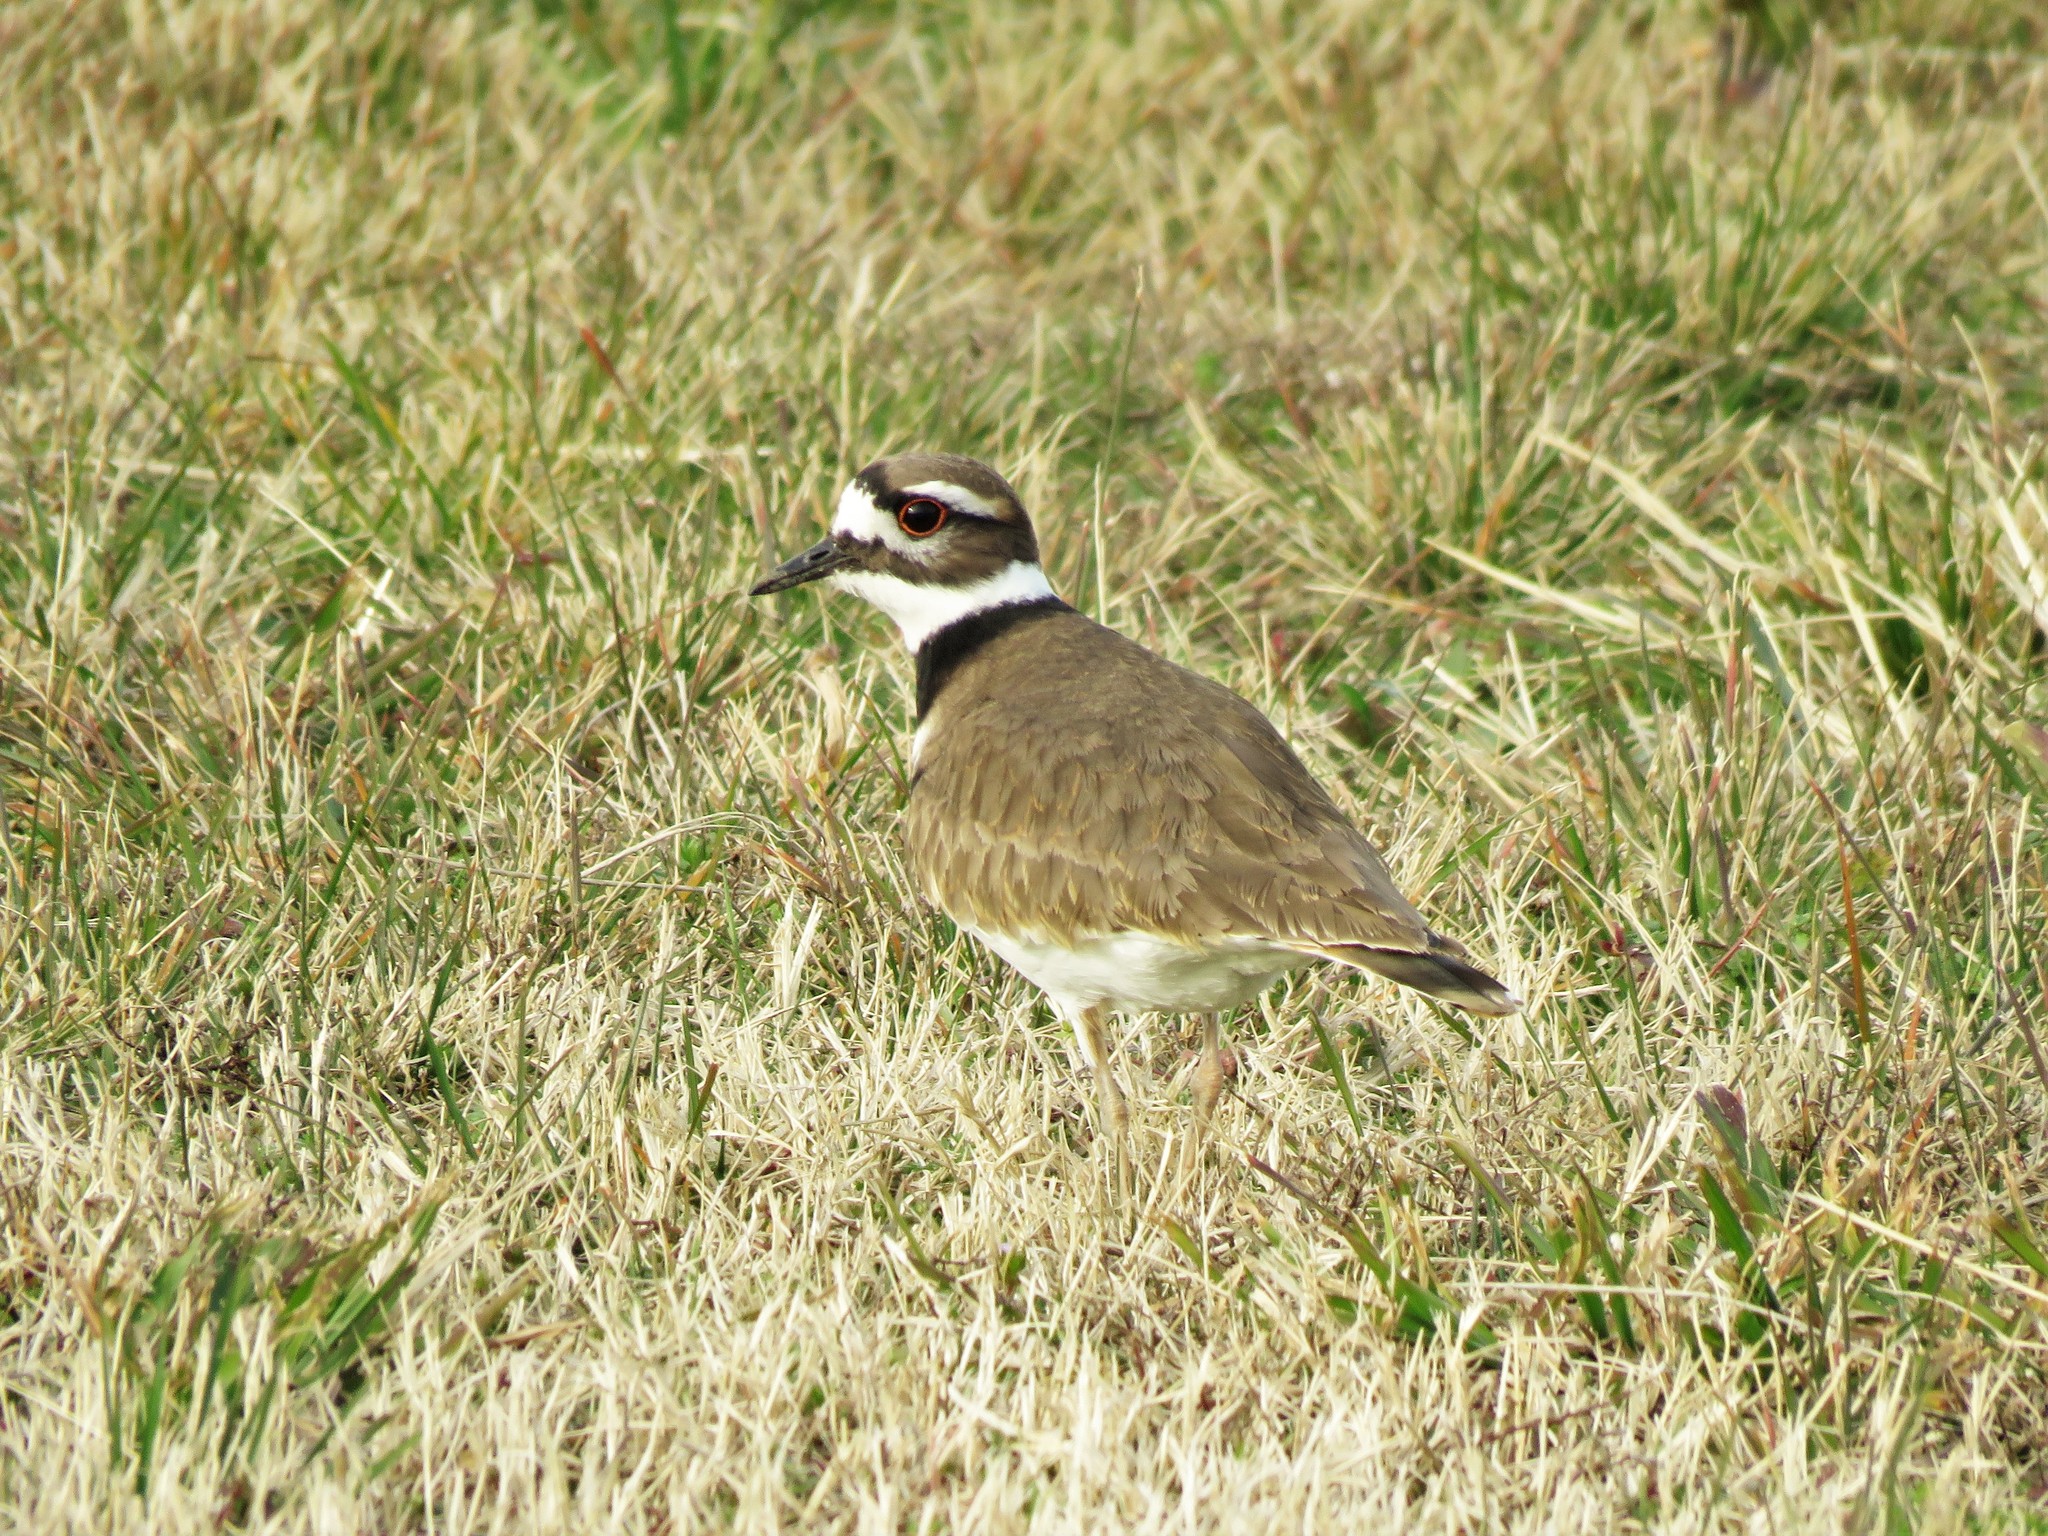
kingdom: Animalia
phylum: Chordata
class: Aves
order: Charadriiformes
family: Charadriidae
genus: Charadrius
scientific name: Charadrius vociferus
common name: Killdeer
